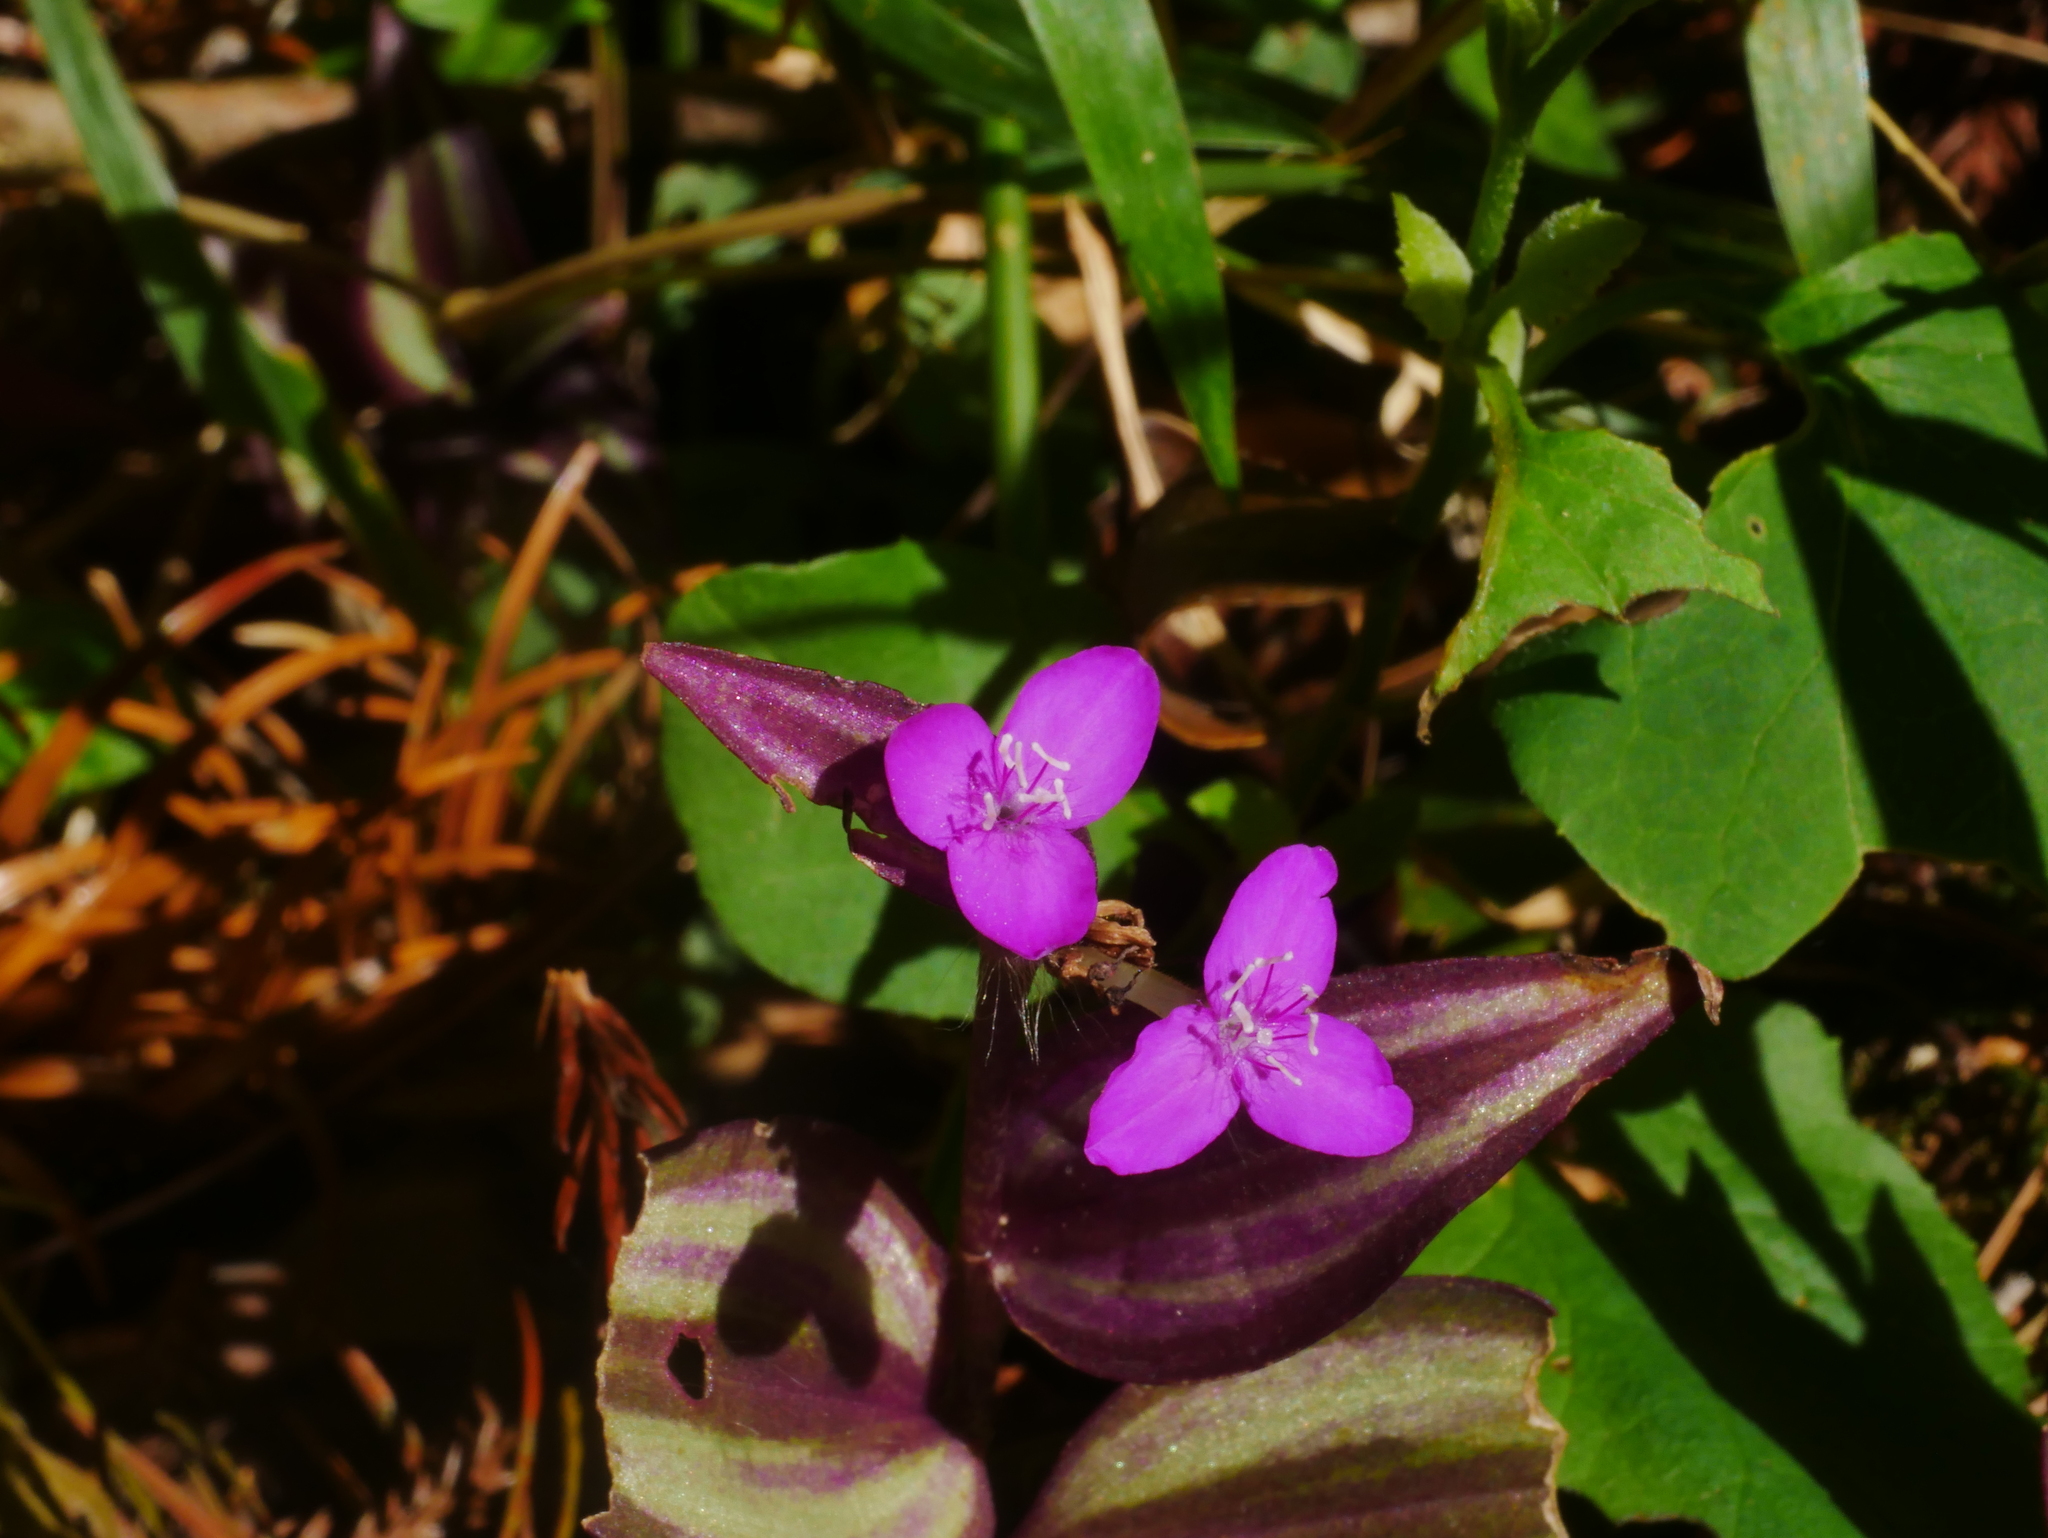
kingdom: Plantae
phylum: Tracheophyta
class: Liliopsida
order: Commelinales
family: Commelinaceae
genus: Tradescantia
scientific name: Tradescantia zebrina
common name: Inchplant
